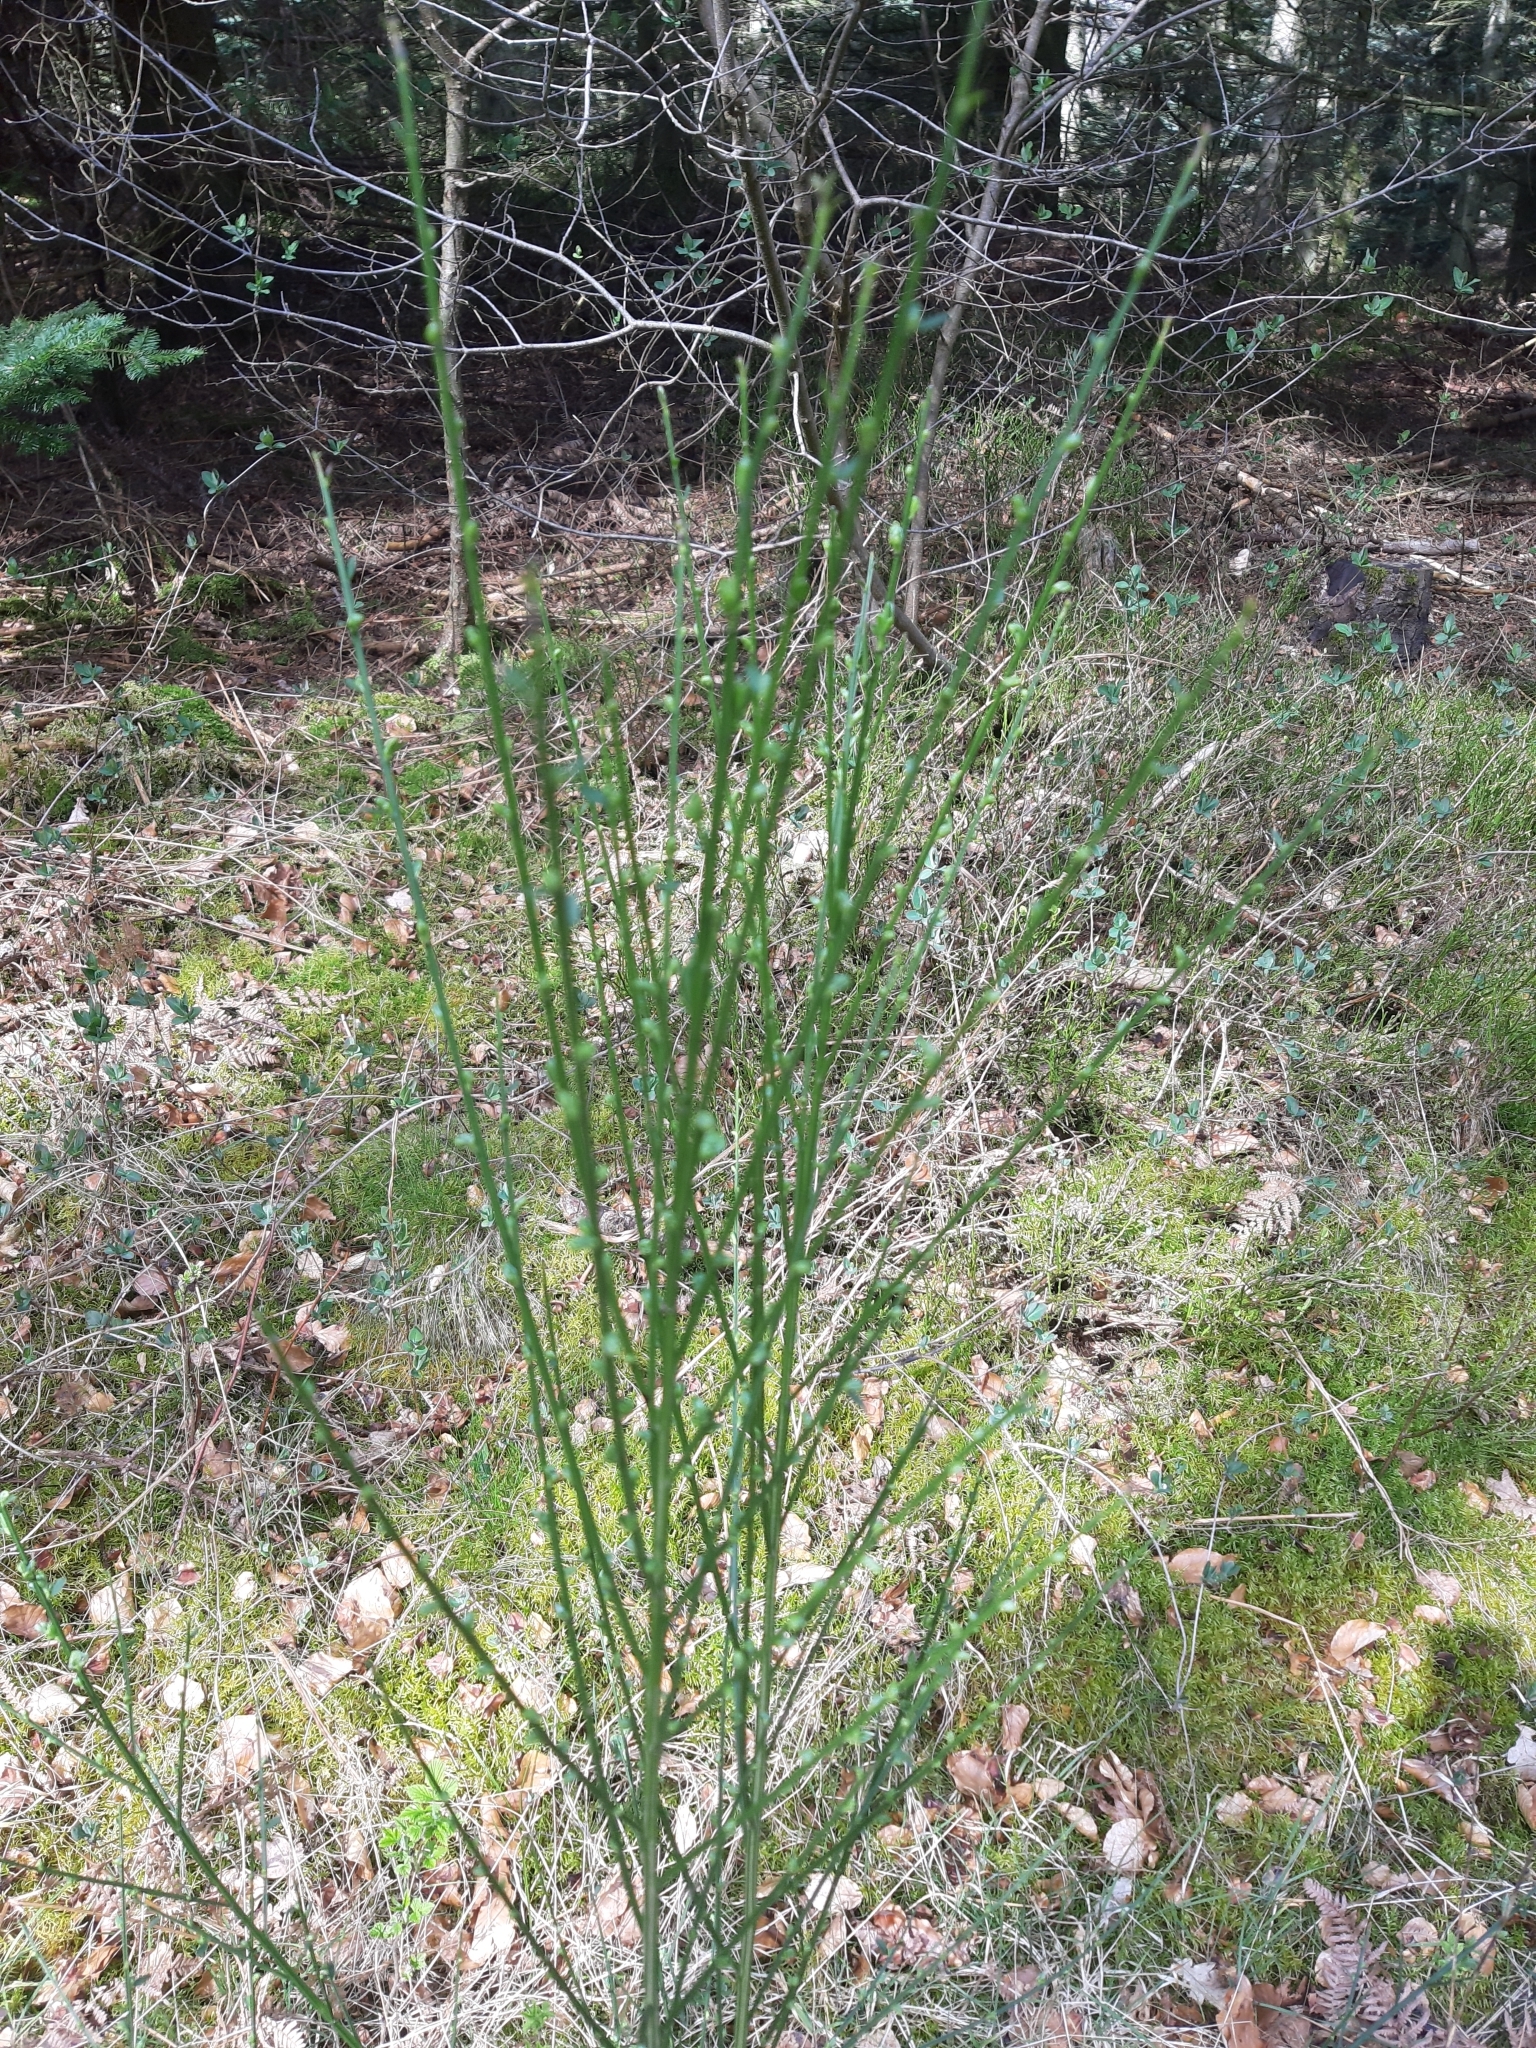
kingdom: Plantae
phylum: Tracheophyta
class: Magnoliopsida
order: Fabales
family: Fabaceae
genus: Cytisus
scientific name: Cytisus scoparius
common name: Scotch broom
